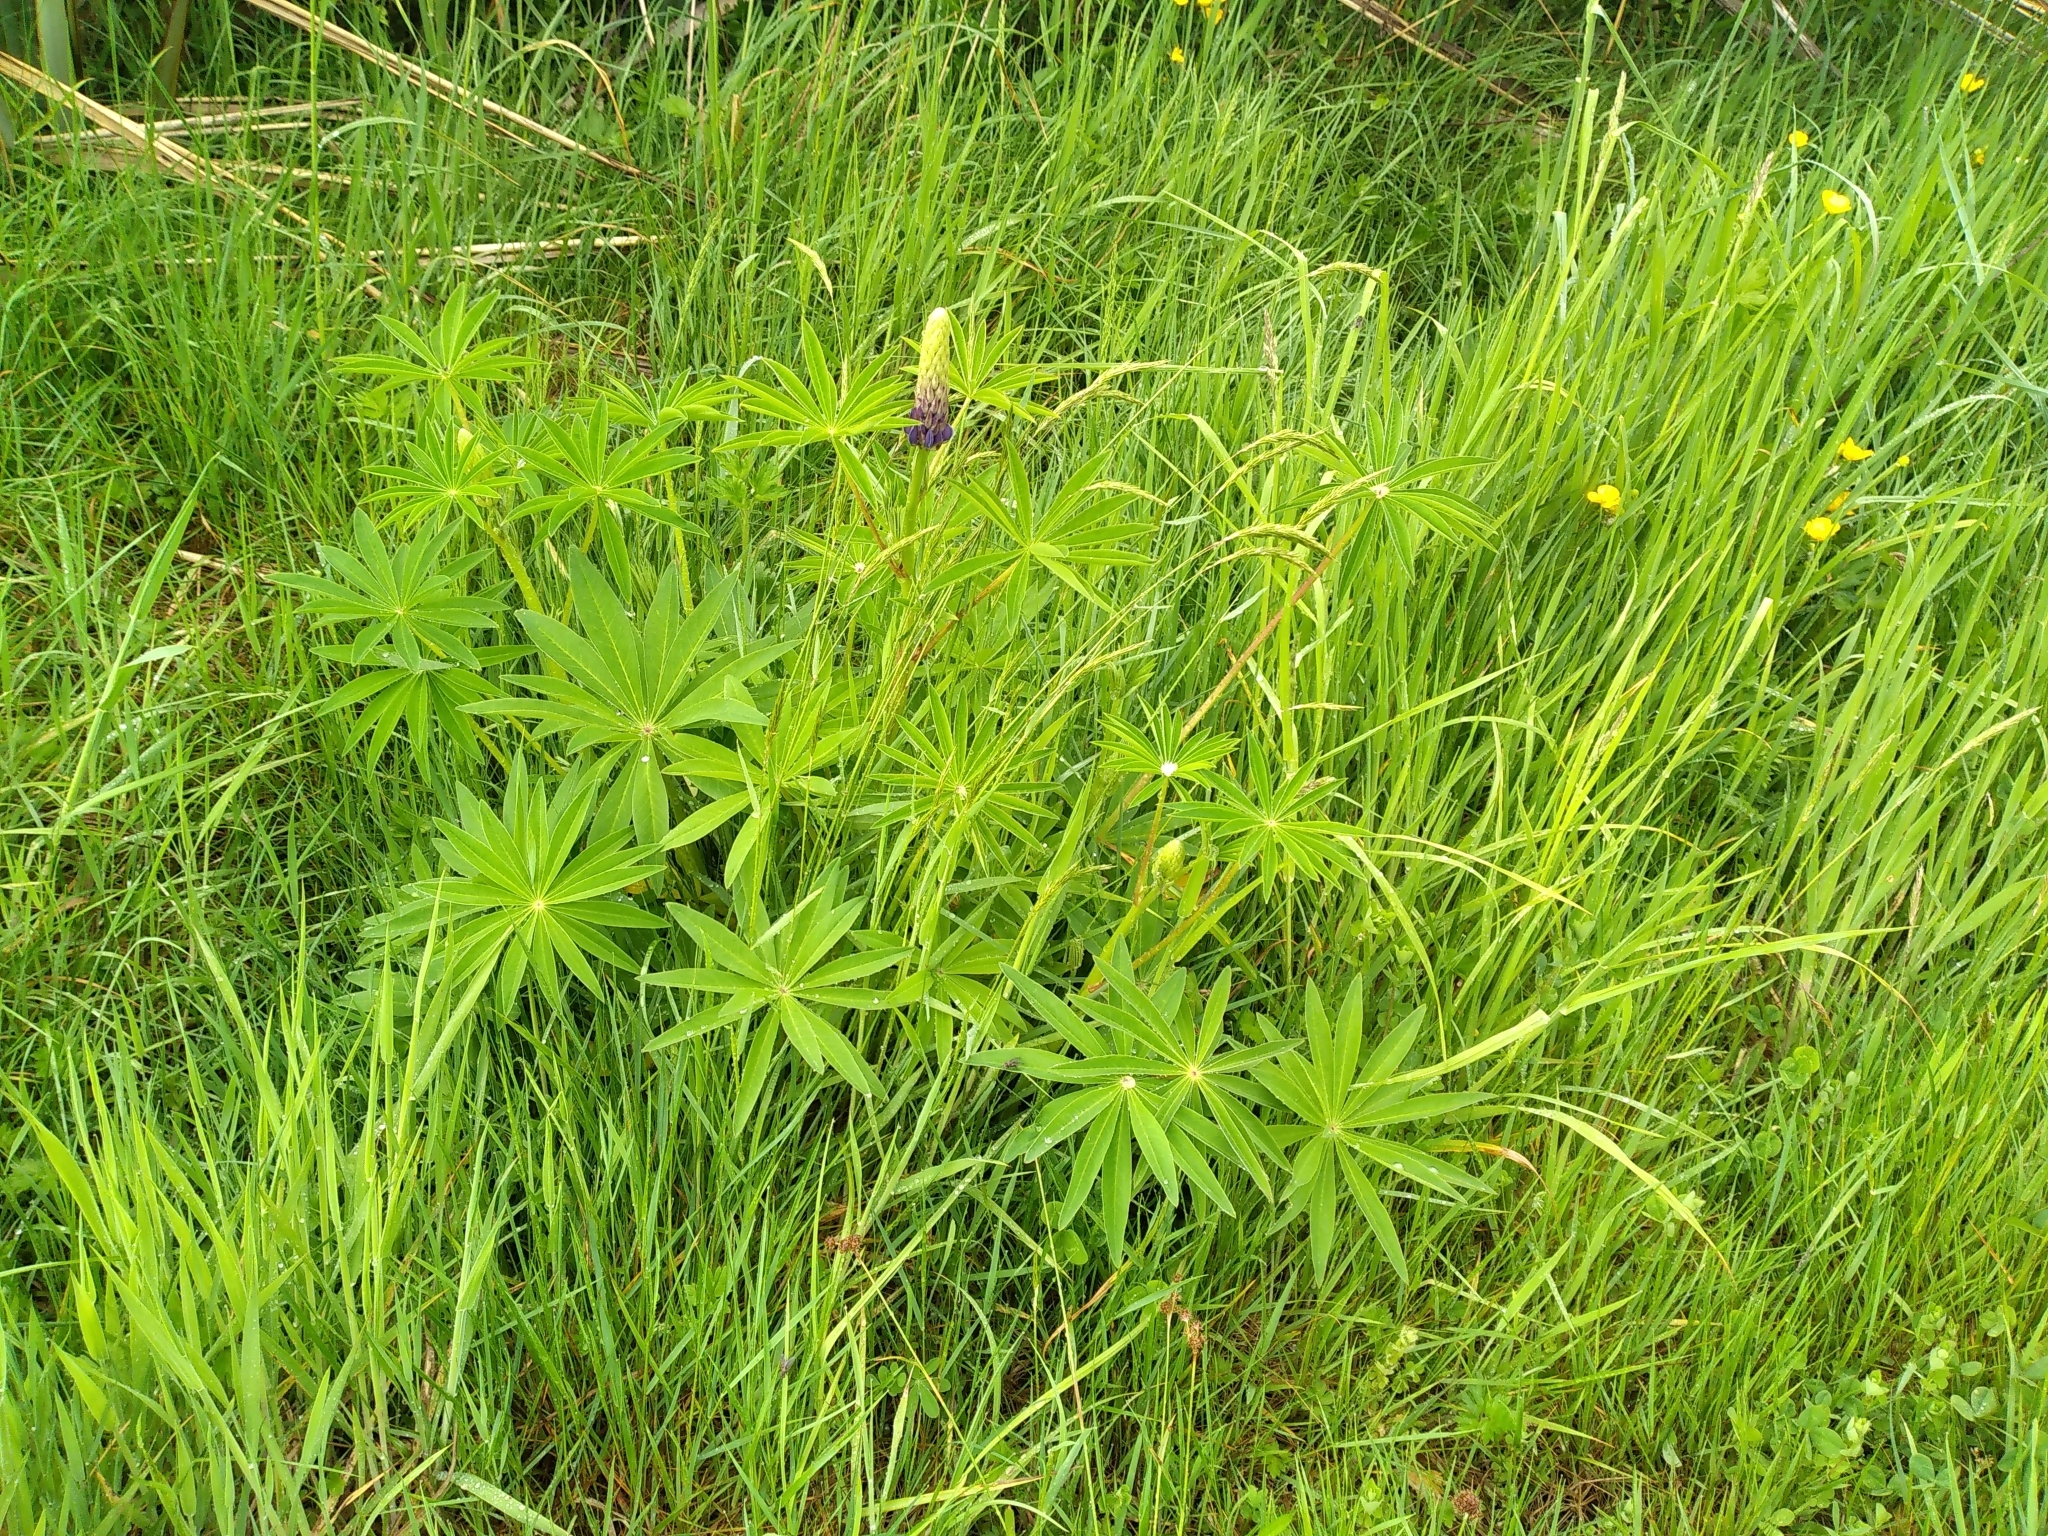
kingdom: Plantae
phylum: Tracheophyta
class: Magnoliopsida
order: Fabales
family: Fabaceae
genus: Lupinus
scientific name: Lupinus polyphyllus
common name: Garden lupin
